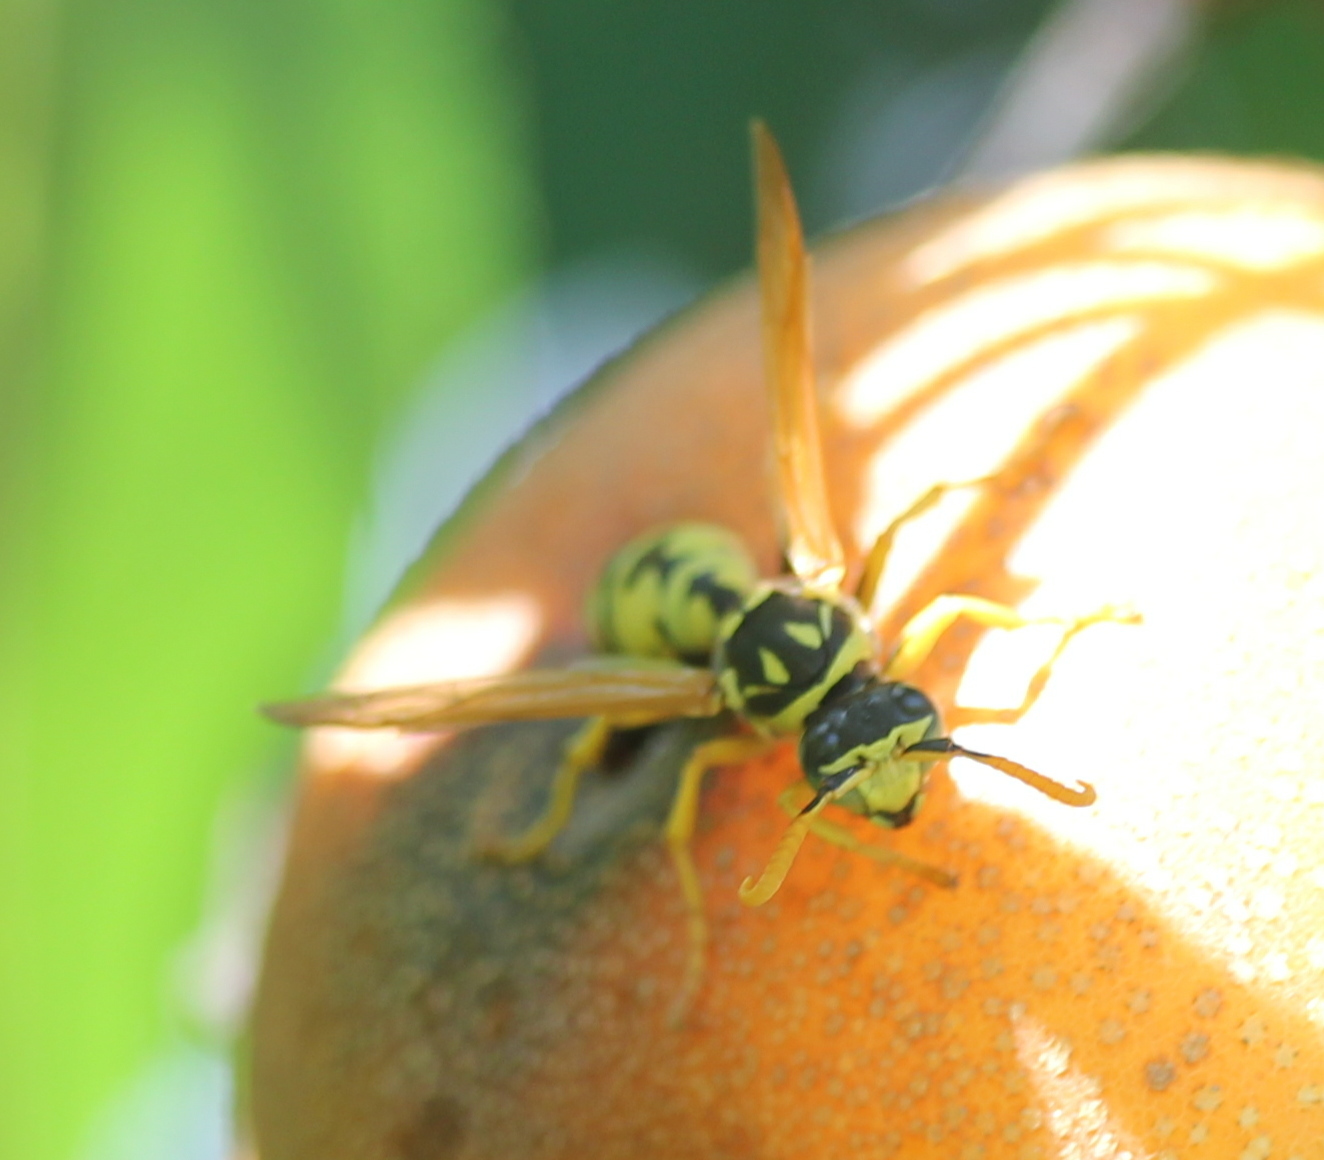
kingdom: Animalia
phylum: Arthropoda
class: Insecta
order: Hymenoptera
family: Eumenidae
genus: Polistes
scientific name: Polistes dominula
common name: Paper wasp
